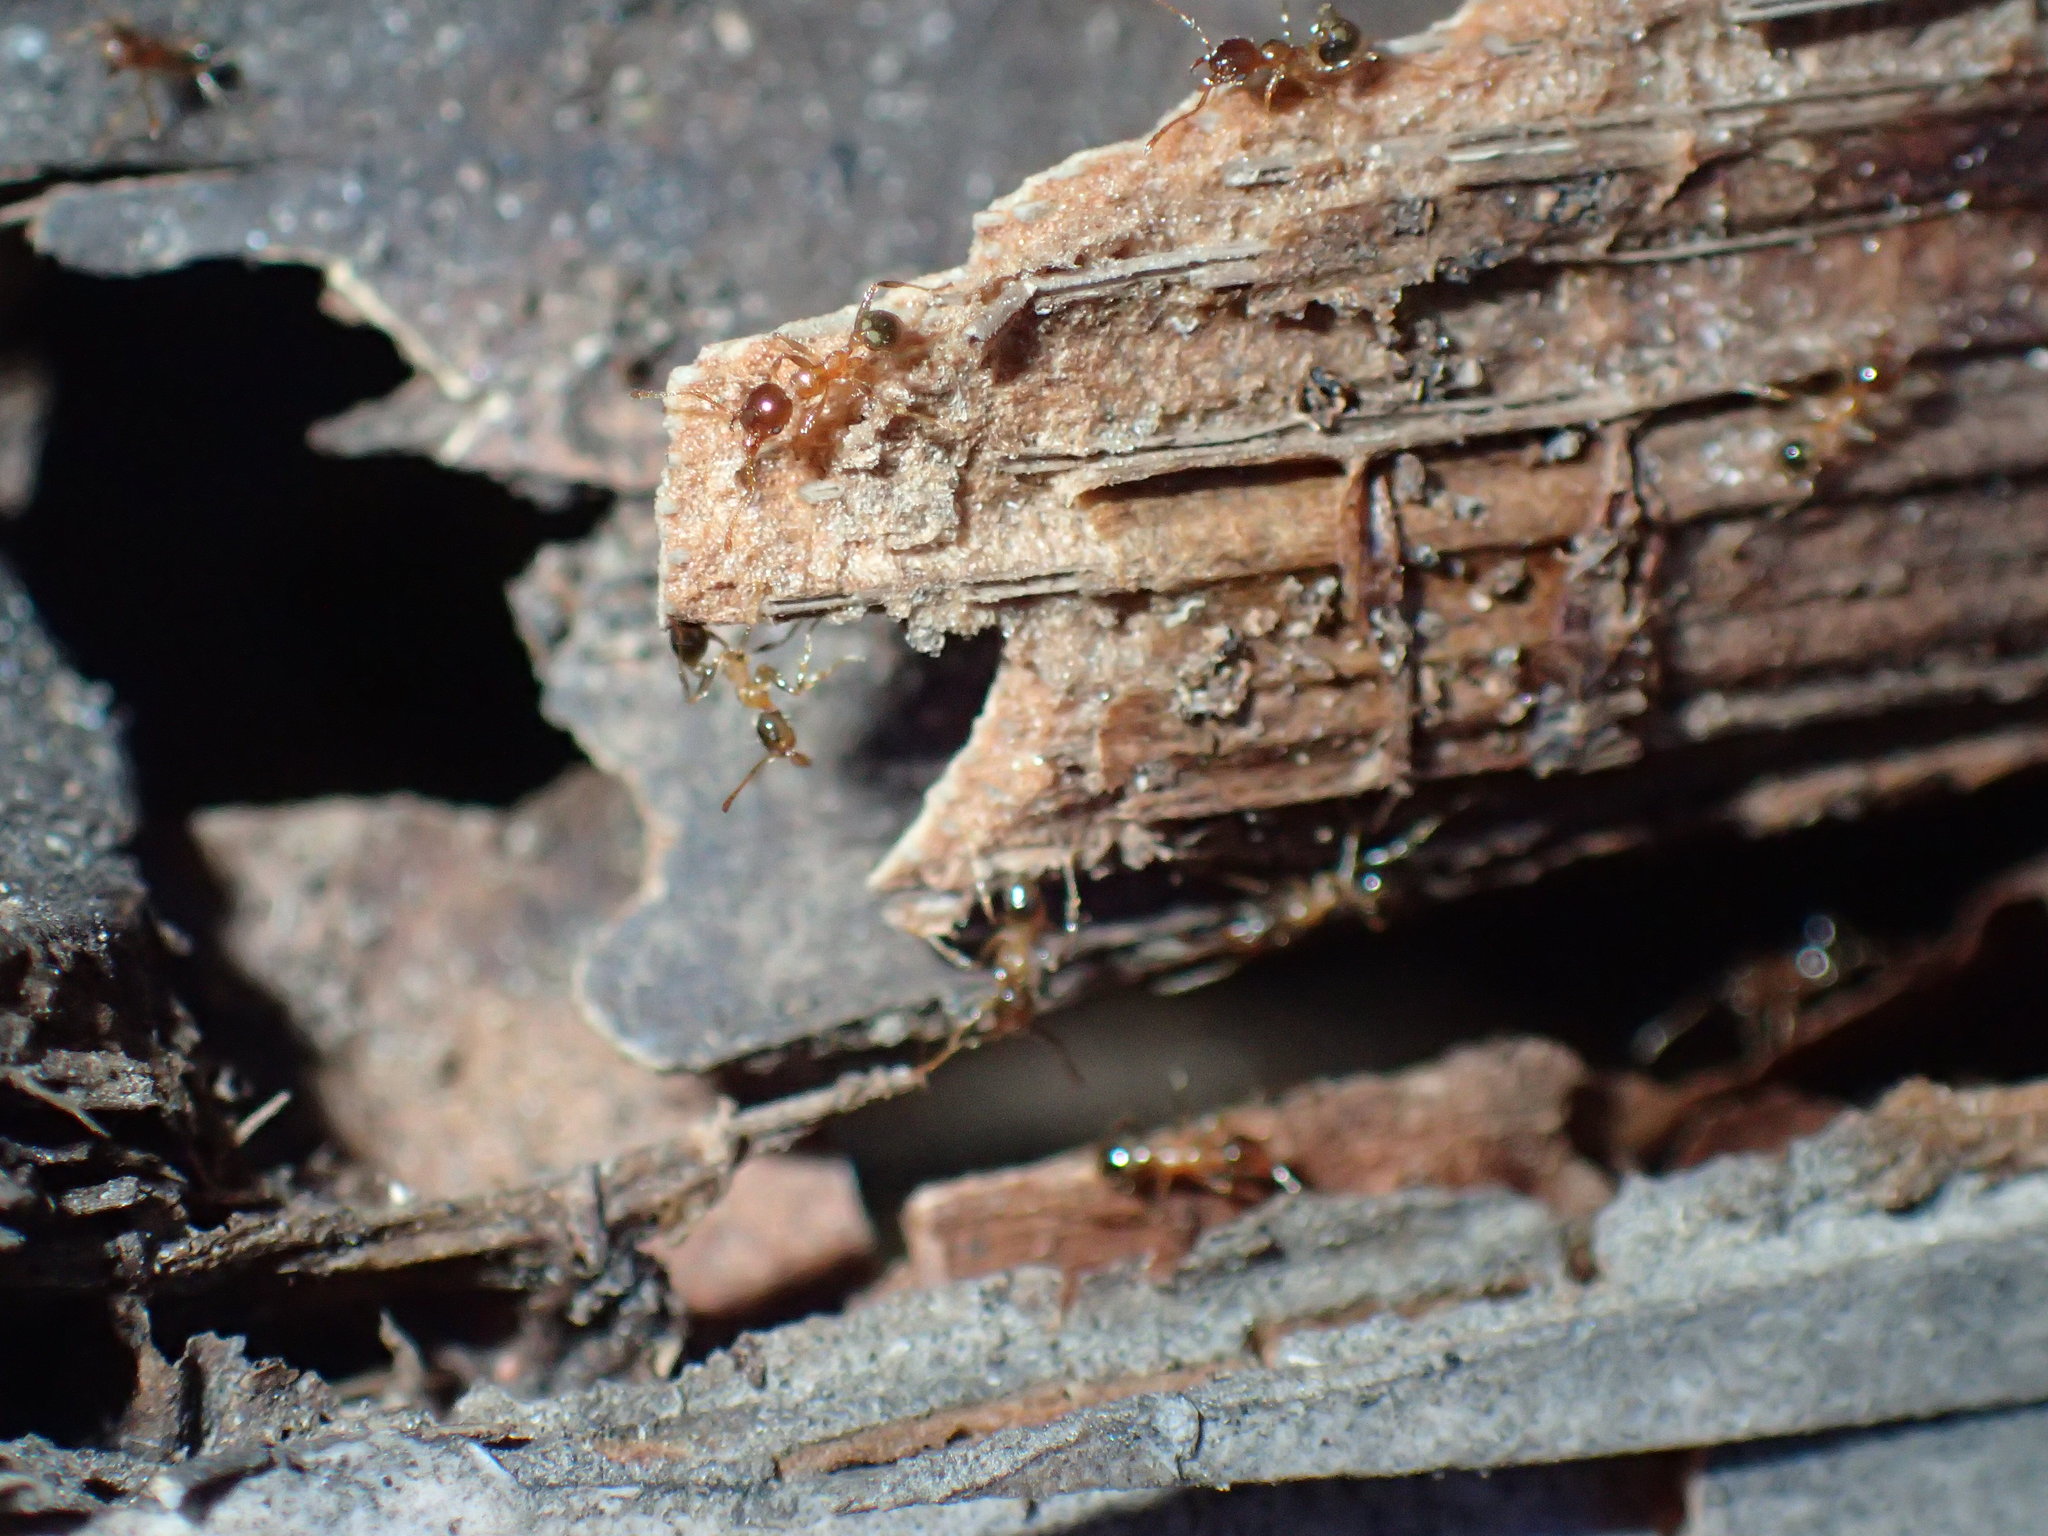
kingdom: Animalia
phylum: Arthropoda
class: Insecta
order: Hymenoptera
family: Formicidae
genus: Pheidole
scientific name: Pheidole megacephala
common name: Bigheaded ant
